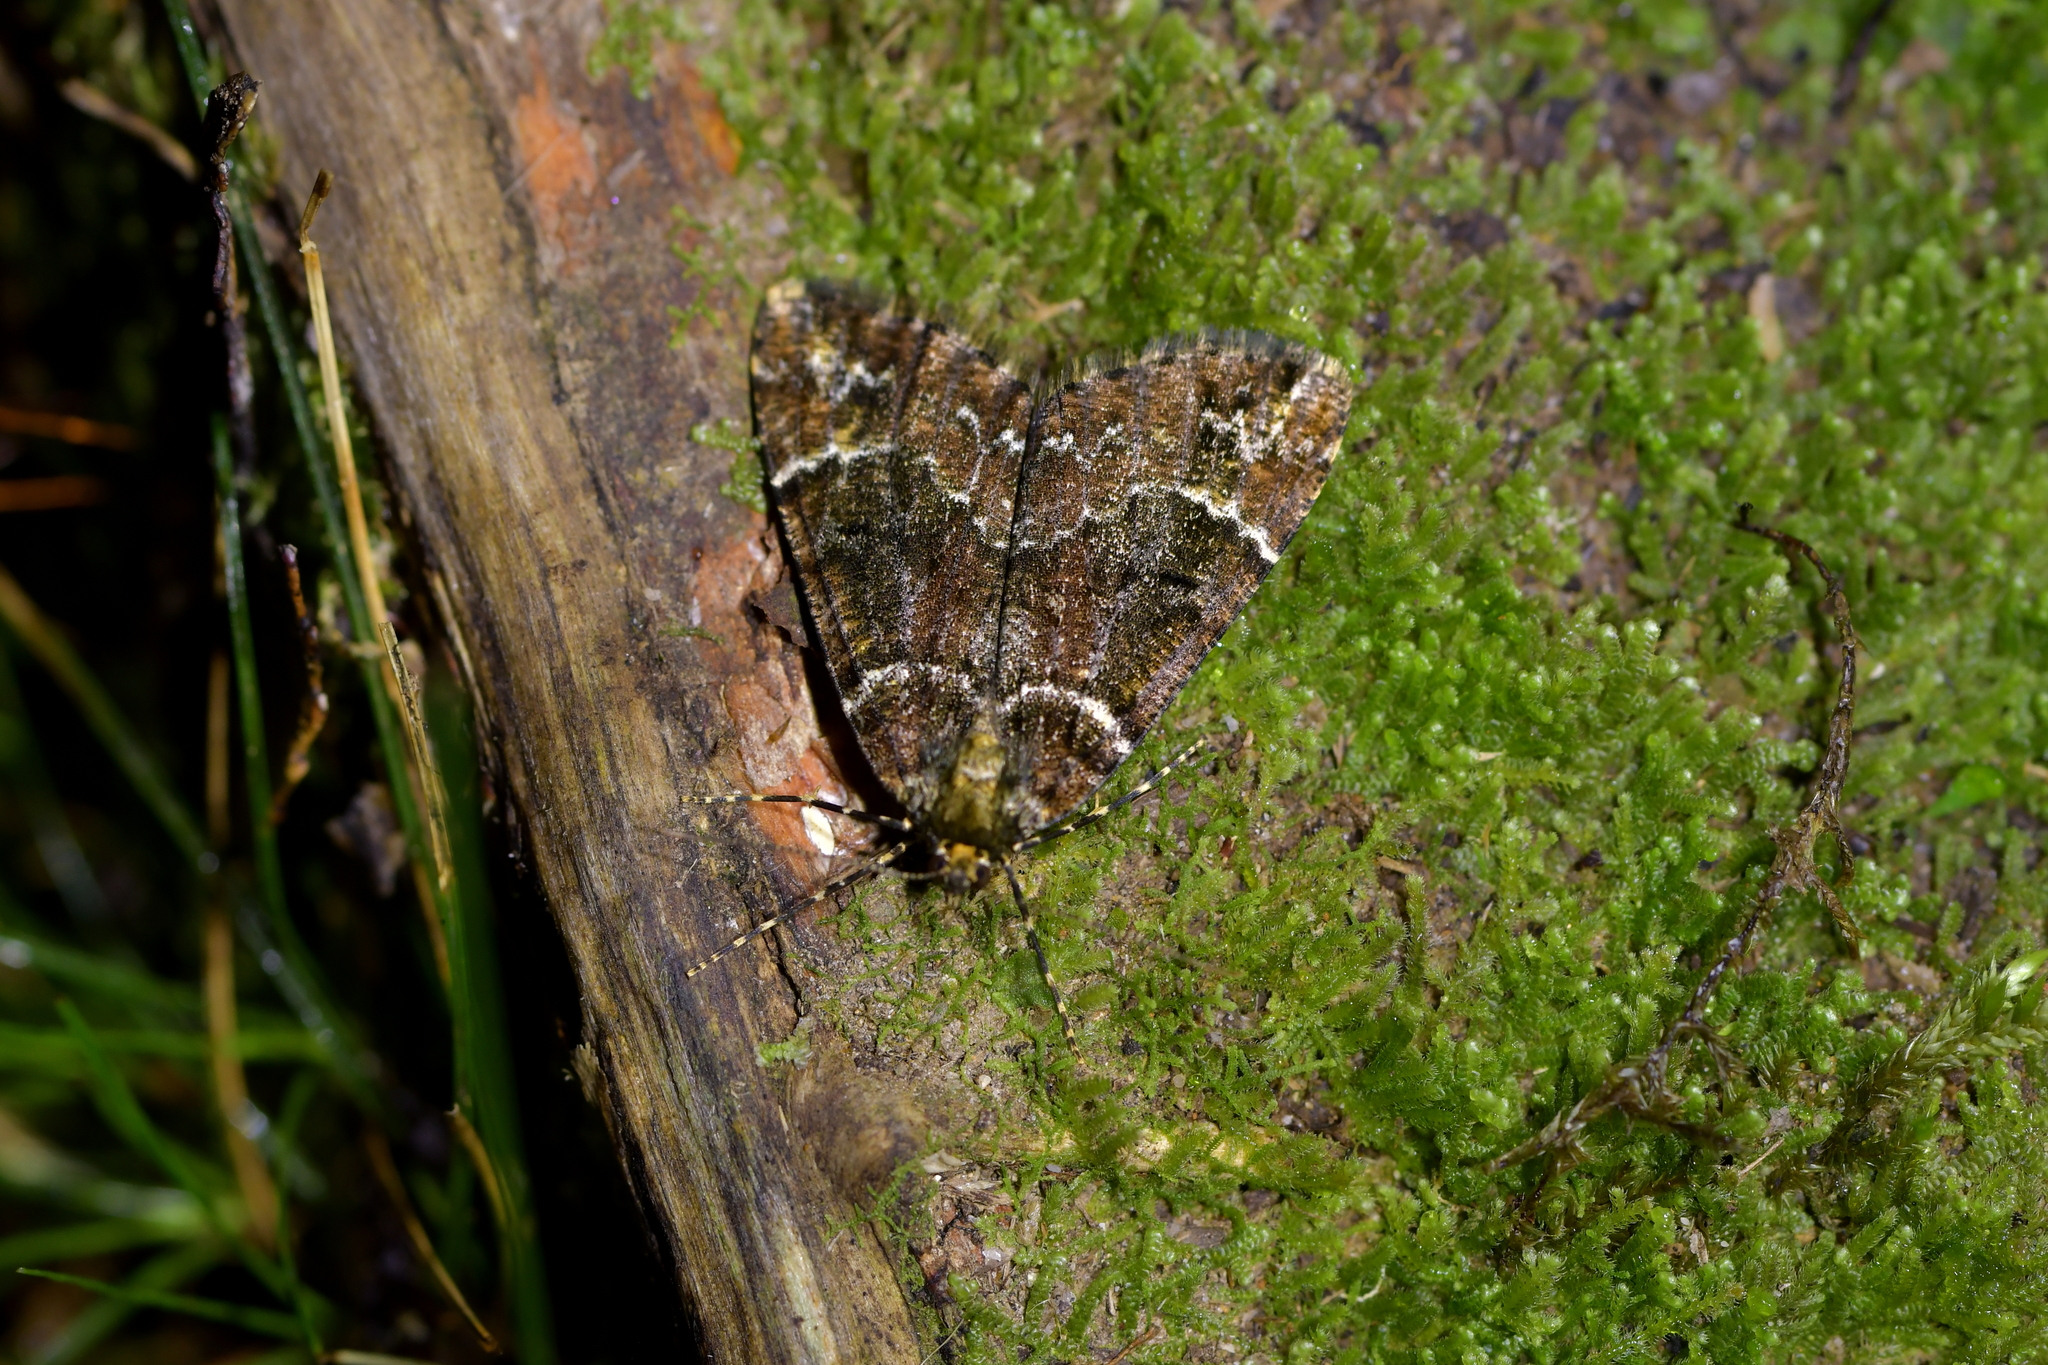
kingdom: Animalia
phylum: Arthropoda
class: Insecta
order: Lepidoptera
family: Geometridae
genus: Pseudocoremia
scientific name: Pseudocoremia productata
